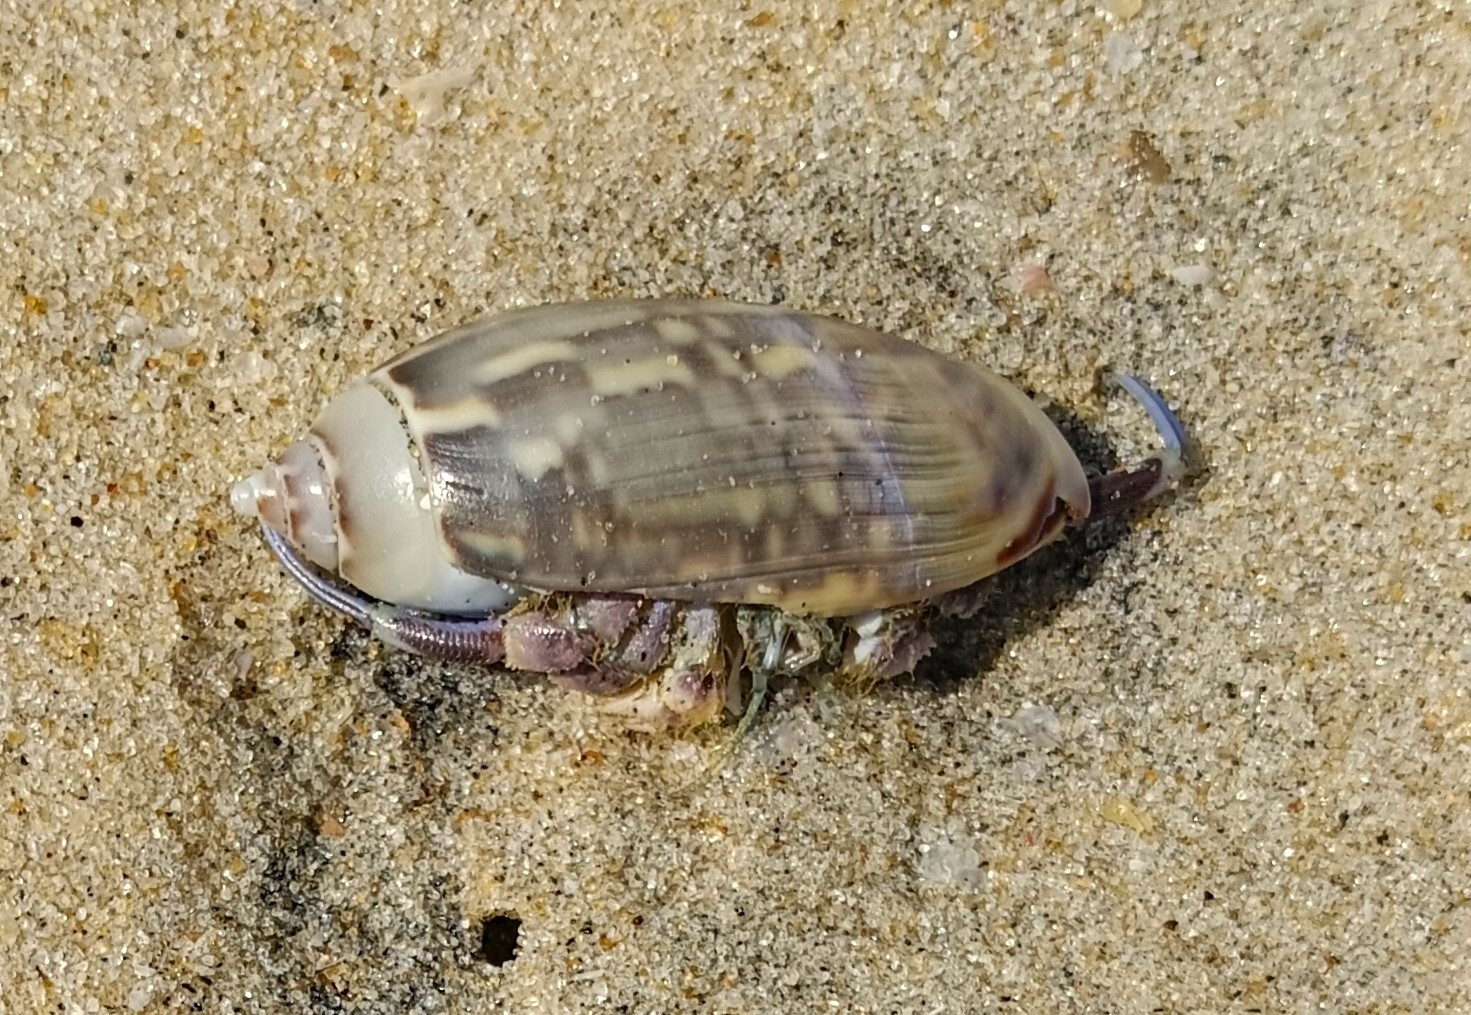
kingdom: Animalia
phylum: Arthropoda
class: Malacostraca
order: Decapoda
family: Diogenidae
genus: Diogenes
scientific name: Diogenes miles
